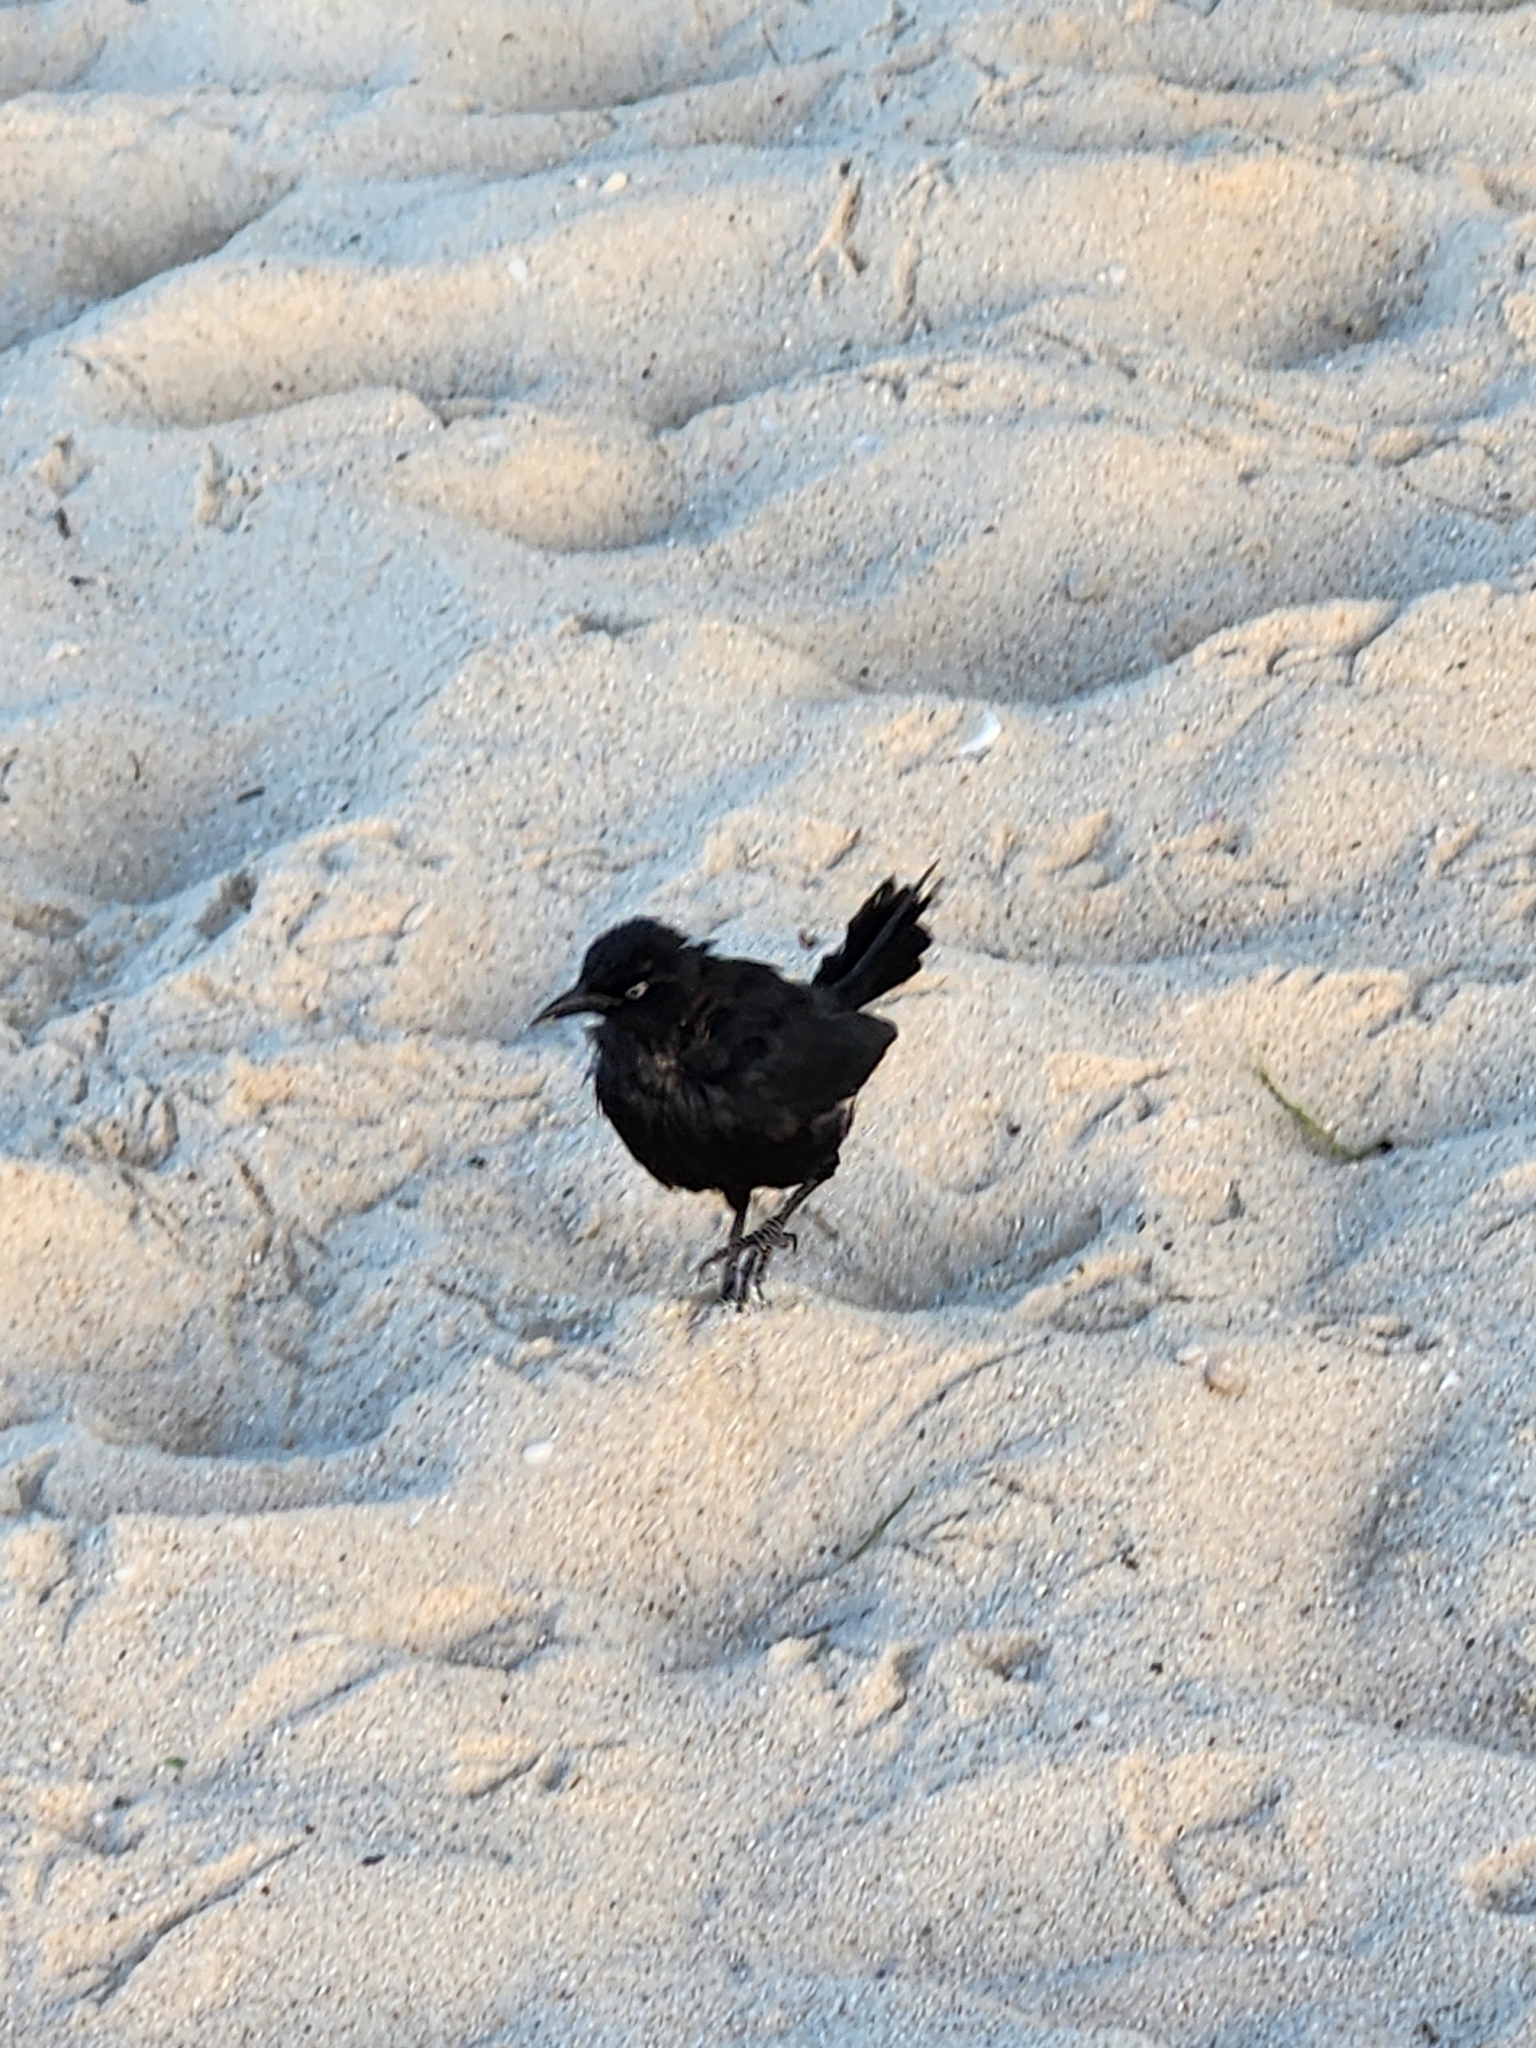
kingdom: Animalia
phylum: Chordata
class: Aves
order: Passeriformes
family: Icteridae
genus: Quiscalus
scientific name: Quiscalus lugubris
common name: Carib grackle
